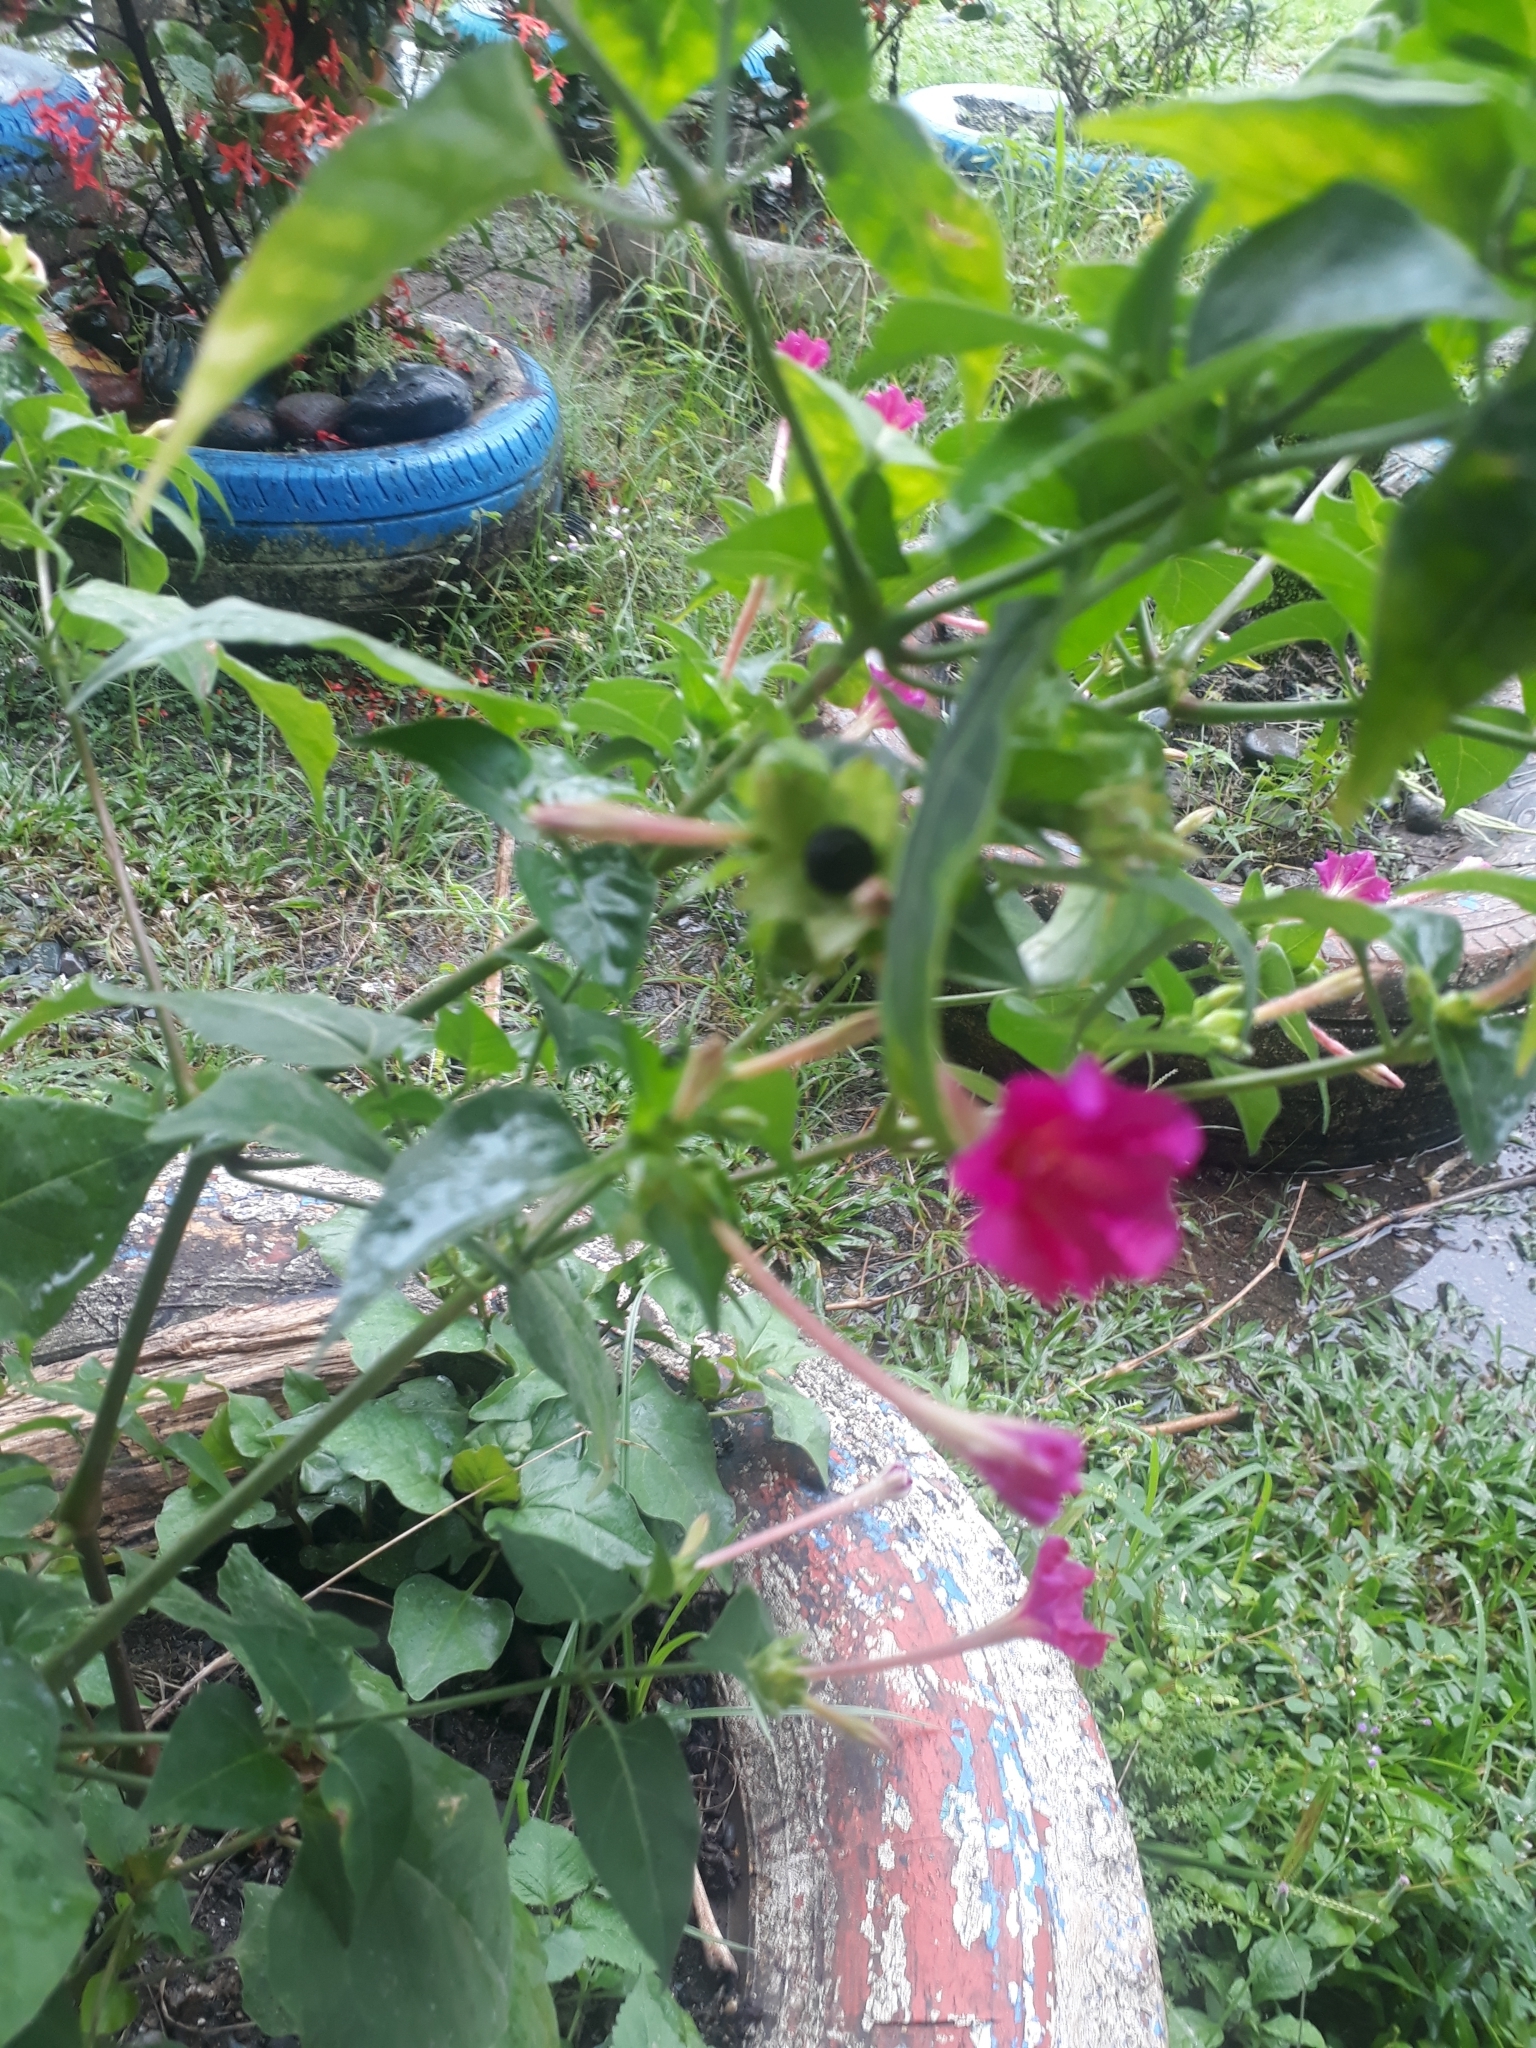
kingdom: Plantae
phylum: Tracheophyta
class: Magnoliopsida
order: Caryophyllales
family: Nyctaginaceae
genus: Mirabilis
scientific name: Mirabilis jalapa
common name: Marvel-of-peru
